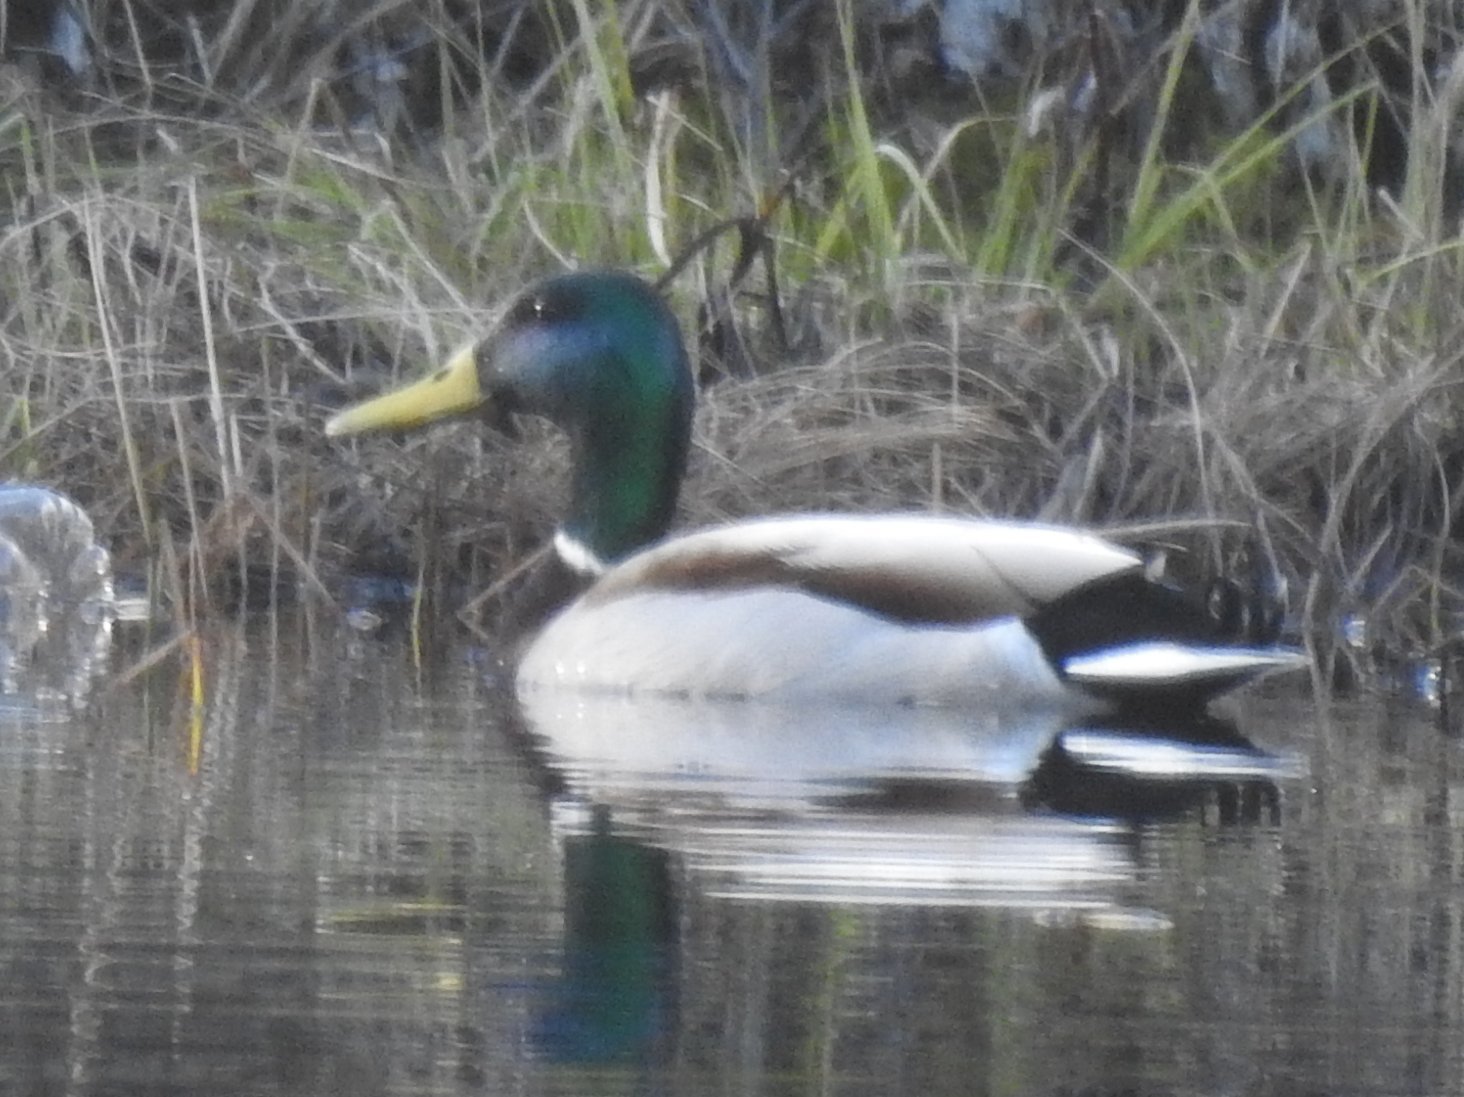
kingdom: Animalia
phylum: Chordata
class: Aves
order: Anseriformes
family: Anatidae
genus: Anas
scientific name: Anas platyrhynchos
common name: Mallard
